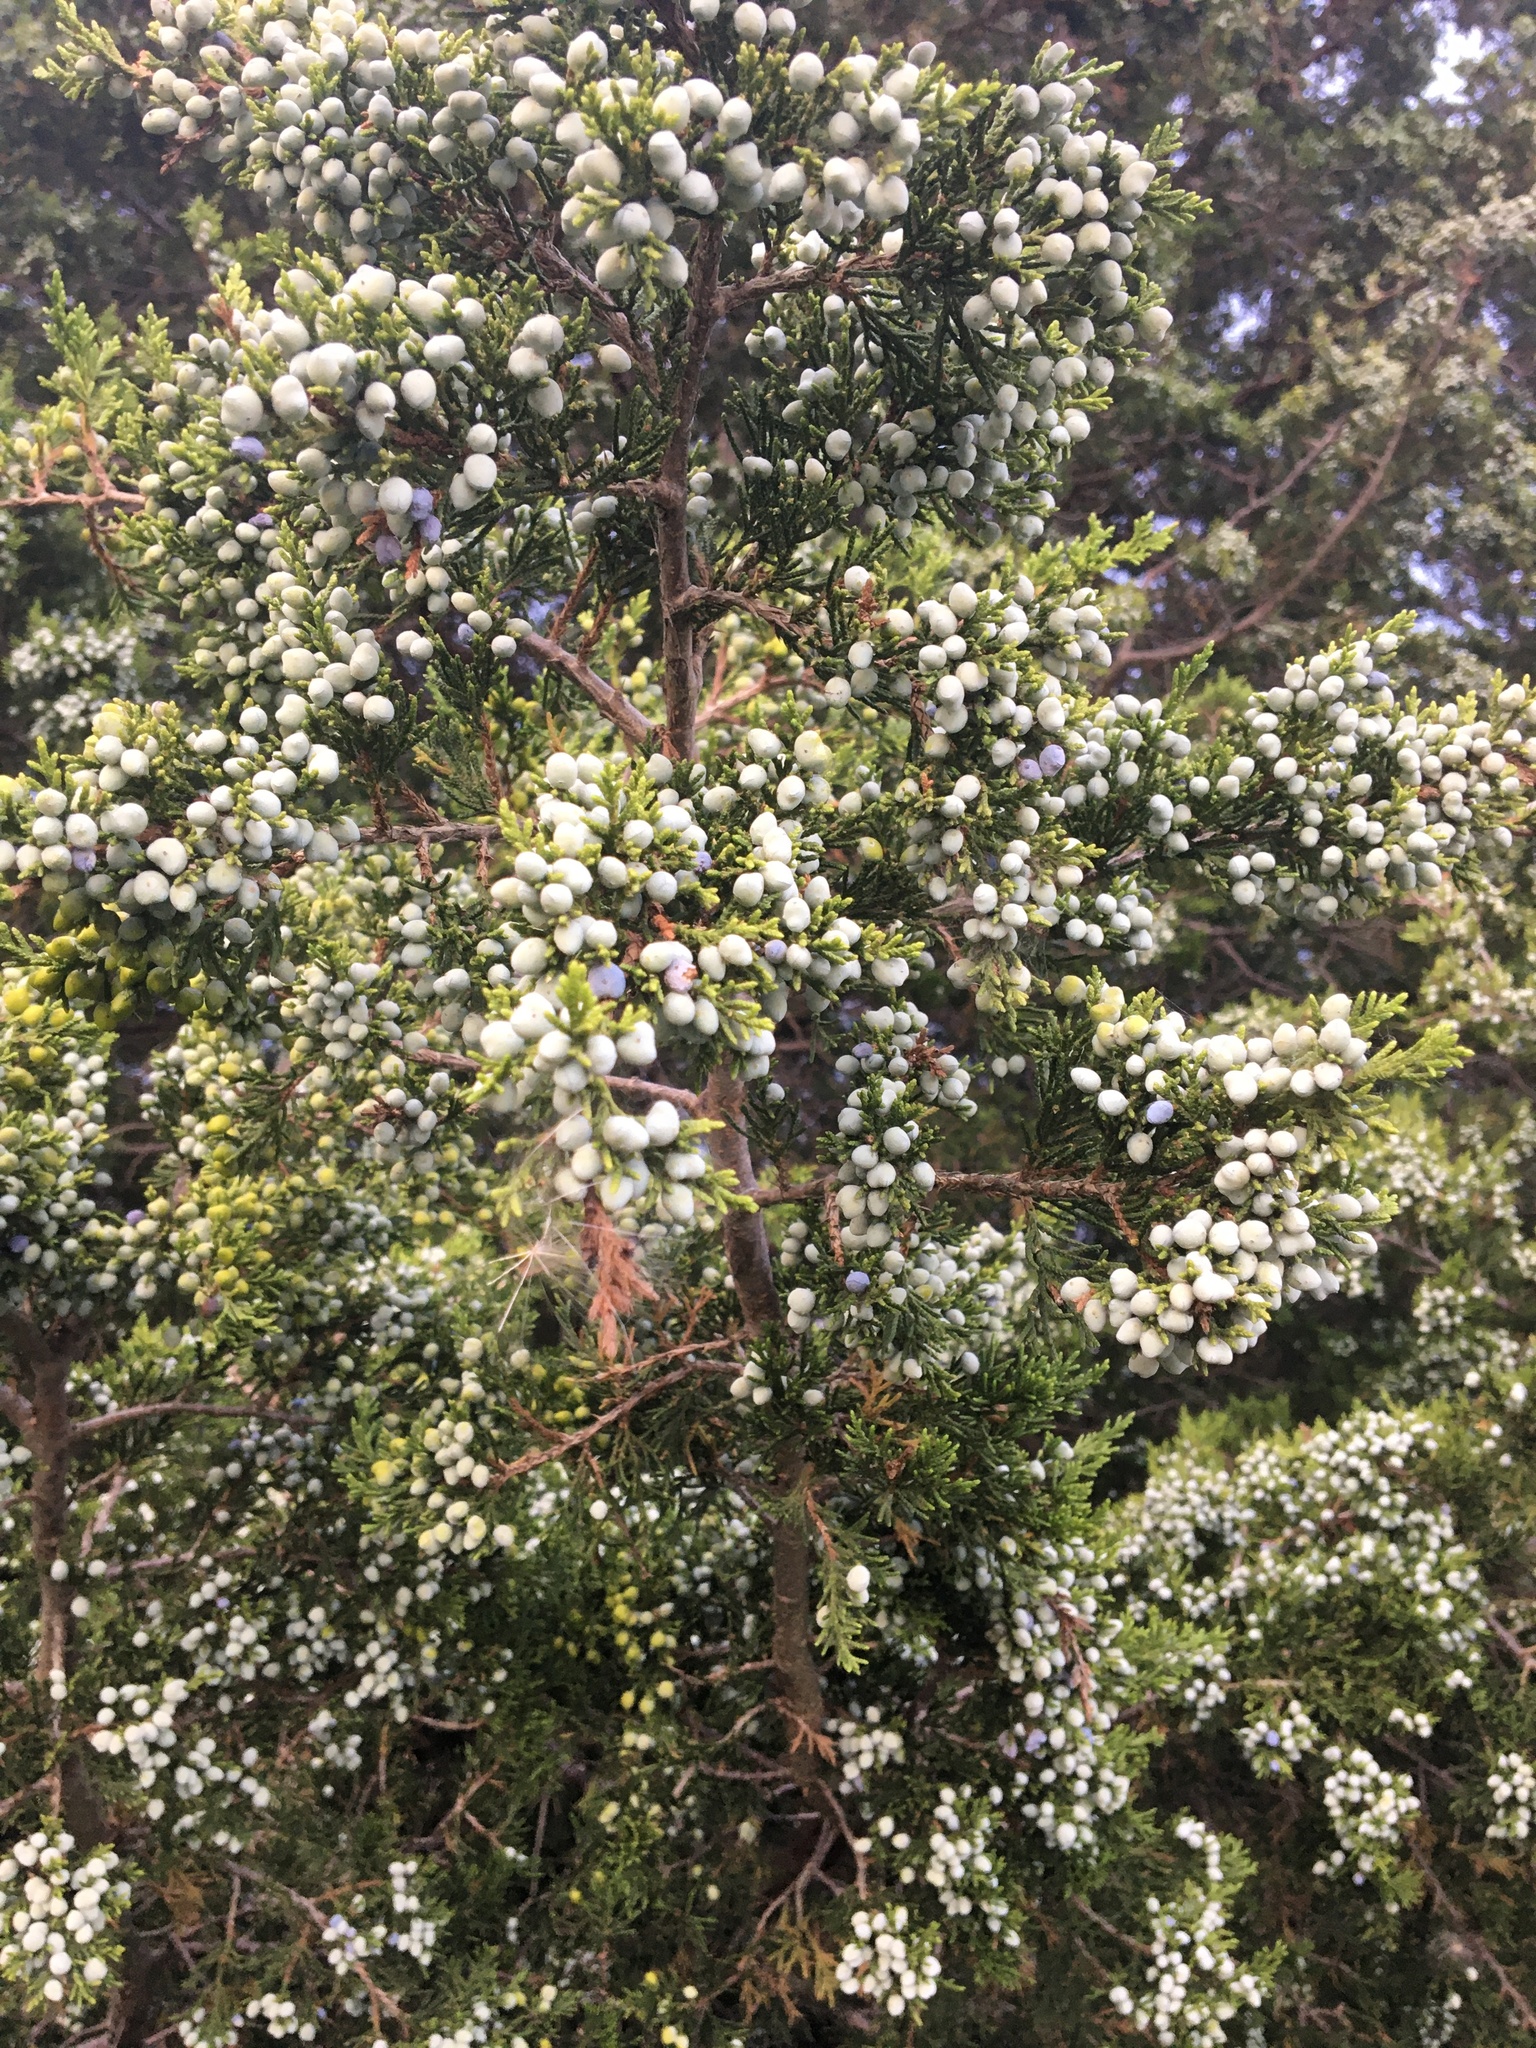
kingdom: Plantae
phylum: Tracheophyta
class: Pinopsida
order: Pinales
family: Cupressaceae
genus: Juniperus
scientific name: Juniperus virginiana
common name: Red juniper
